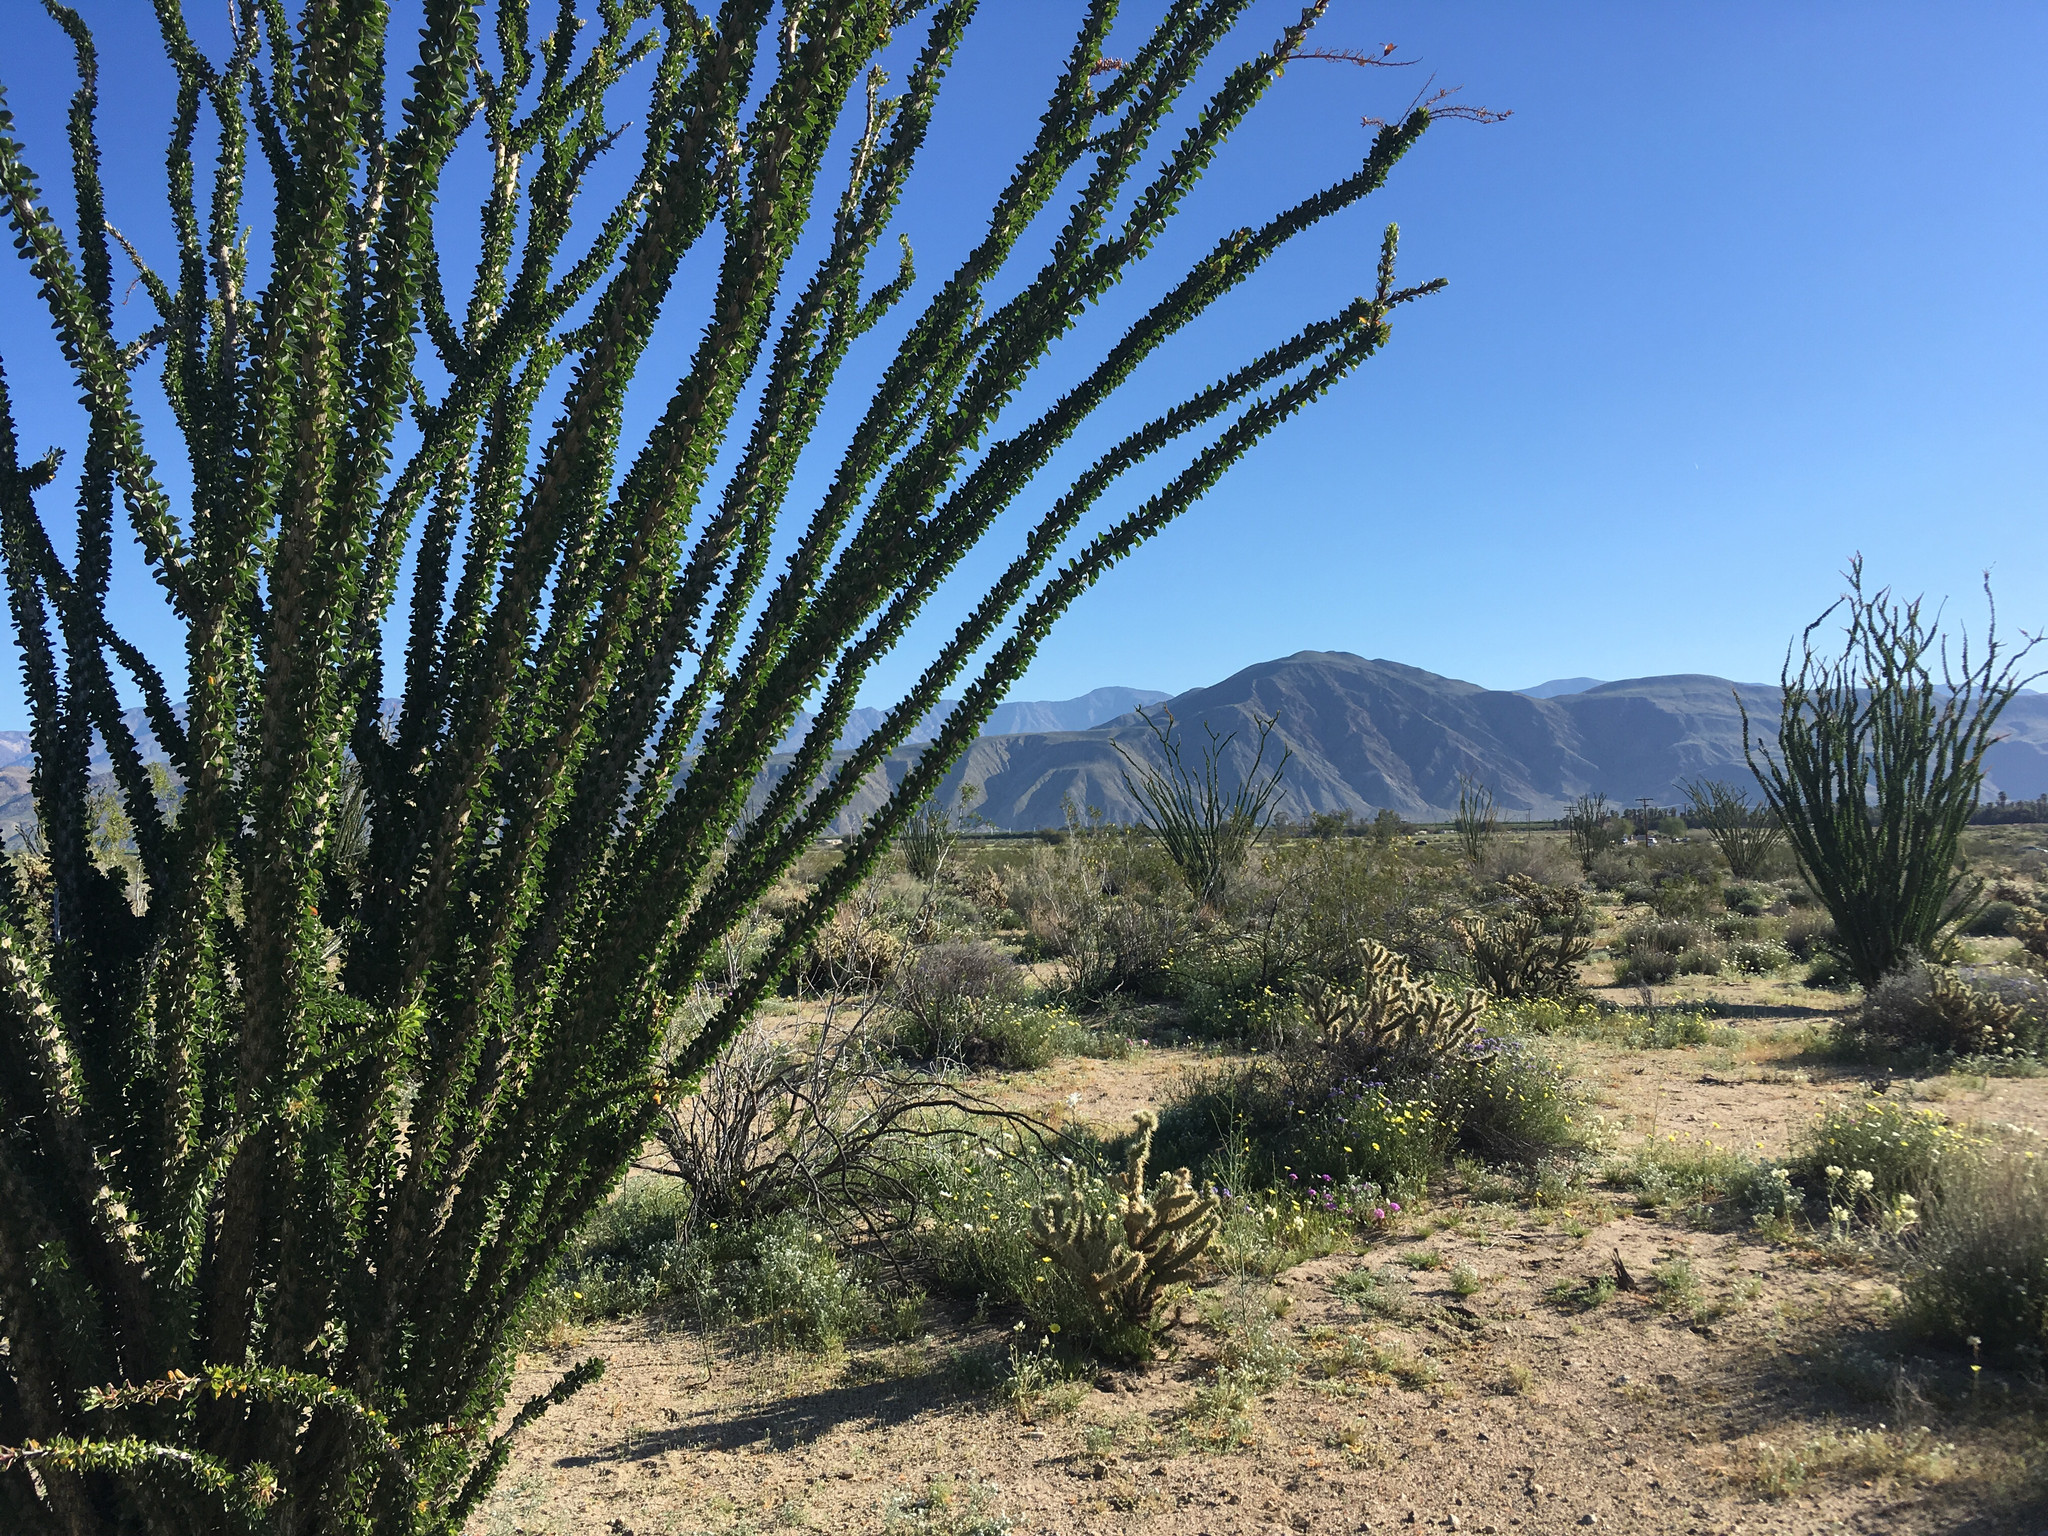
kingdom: Plantae
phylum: Tracheophyta
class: Magnoliopsida
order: Ericales
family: Fouquieriaceae
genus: Fouquieria
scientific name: Fouquieria splendens
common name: Vine-cactus
